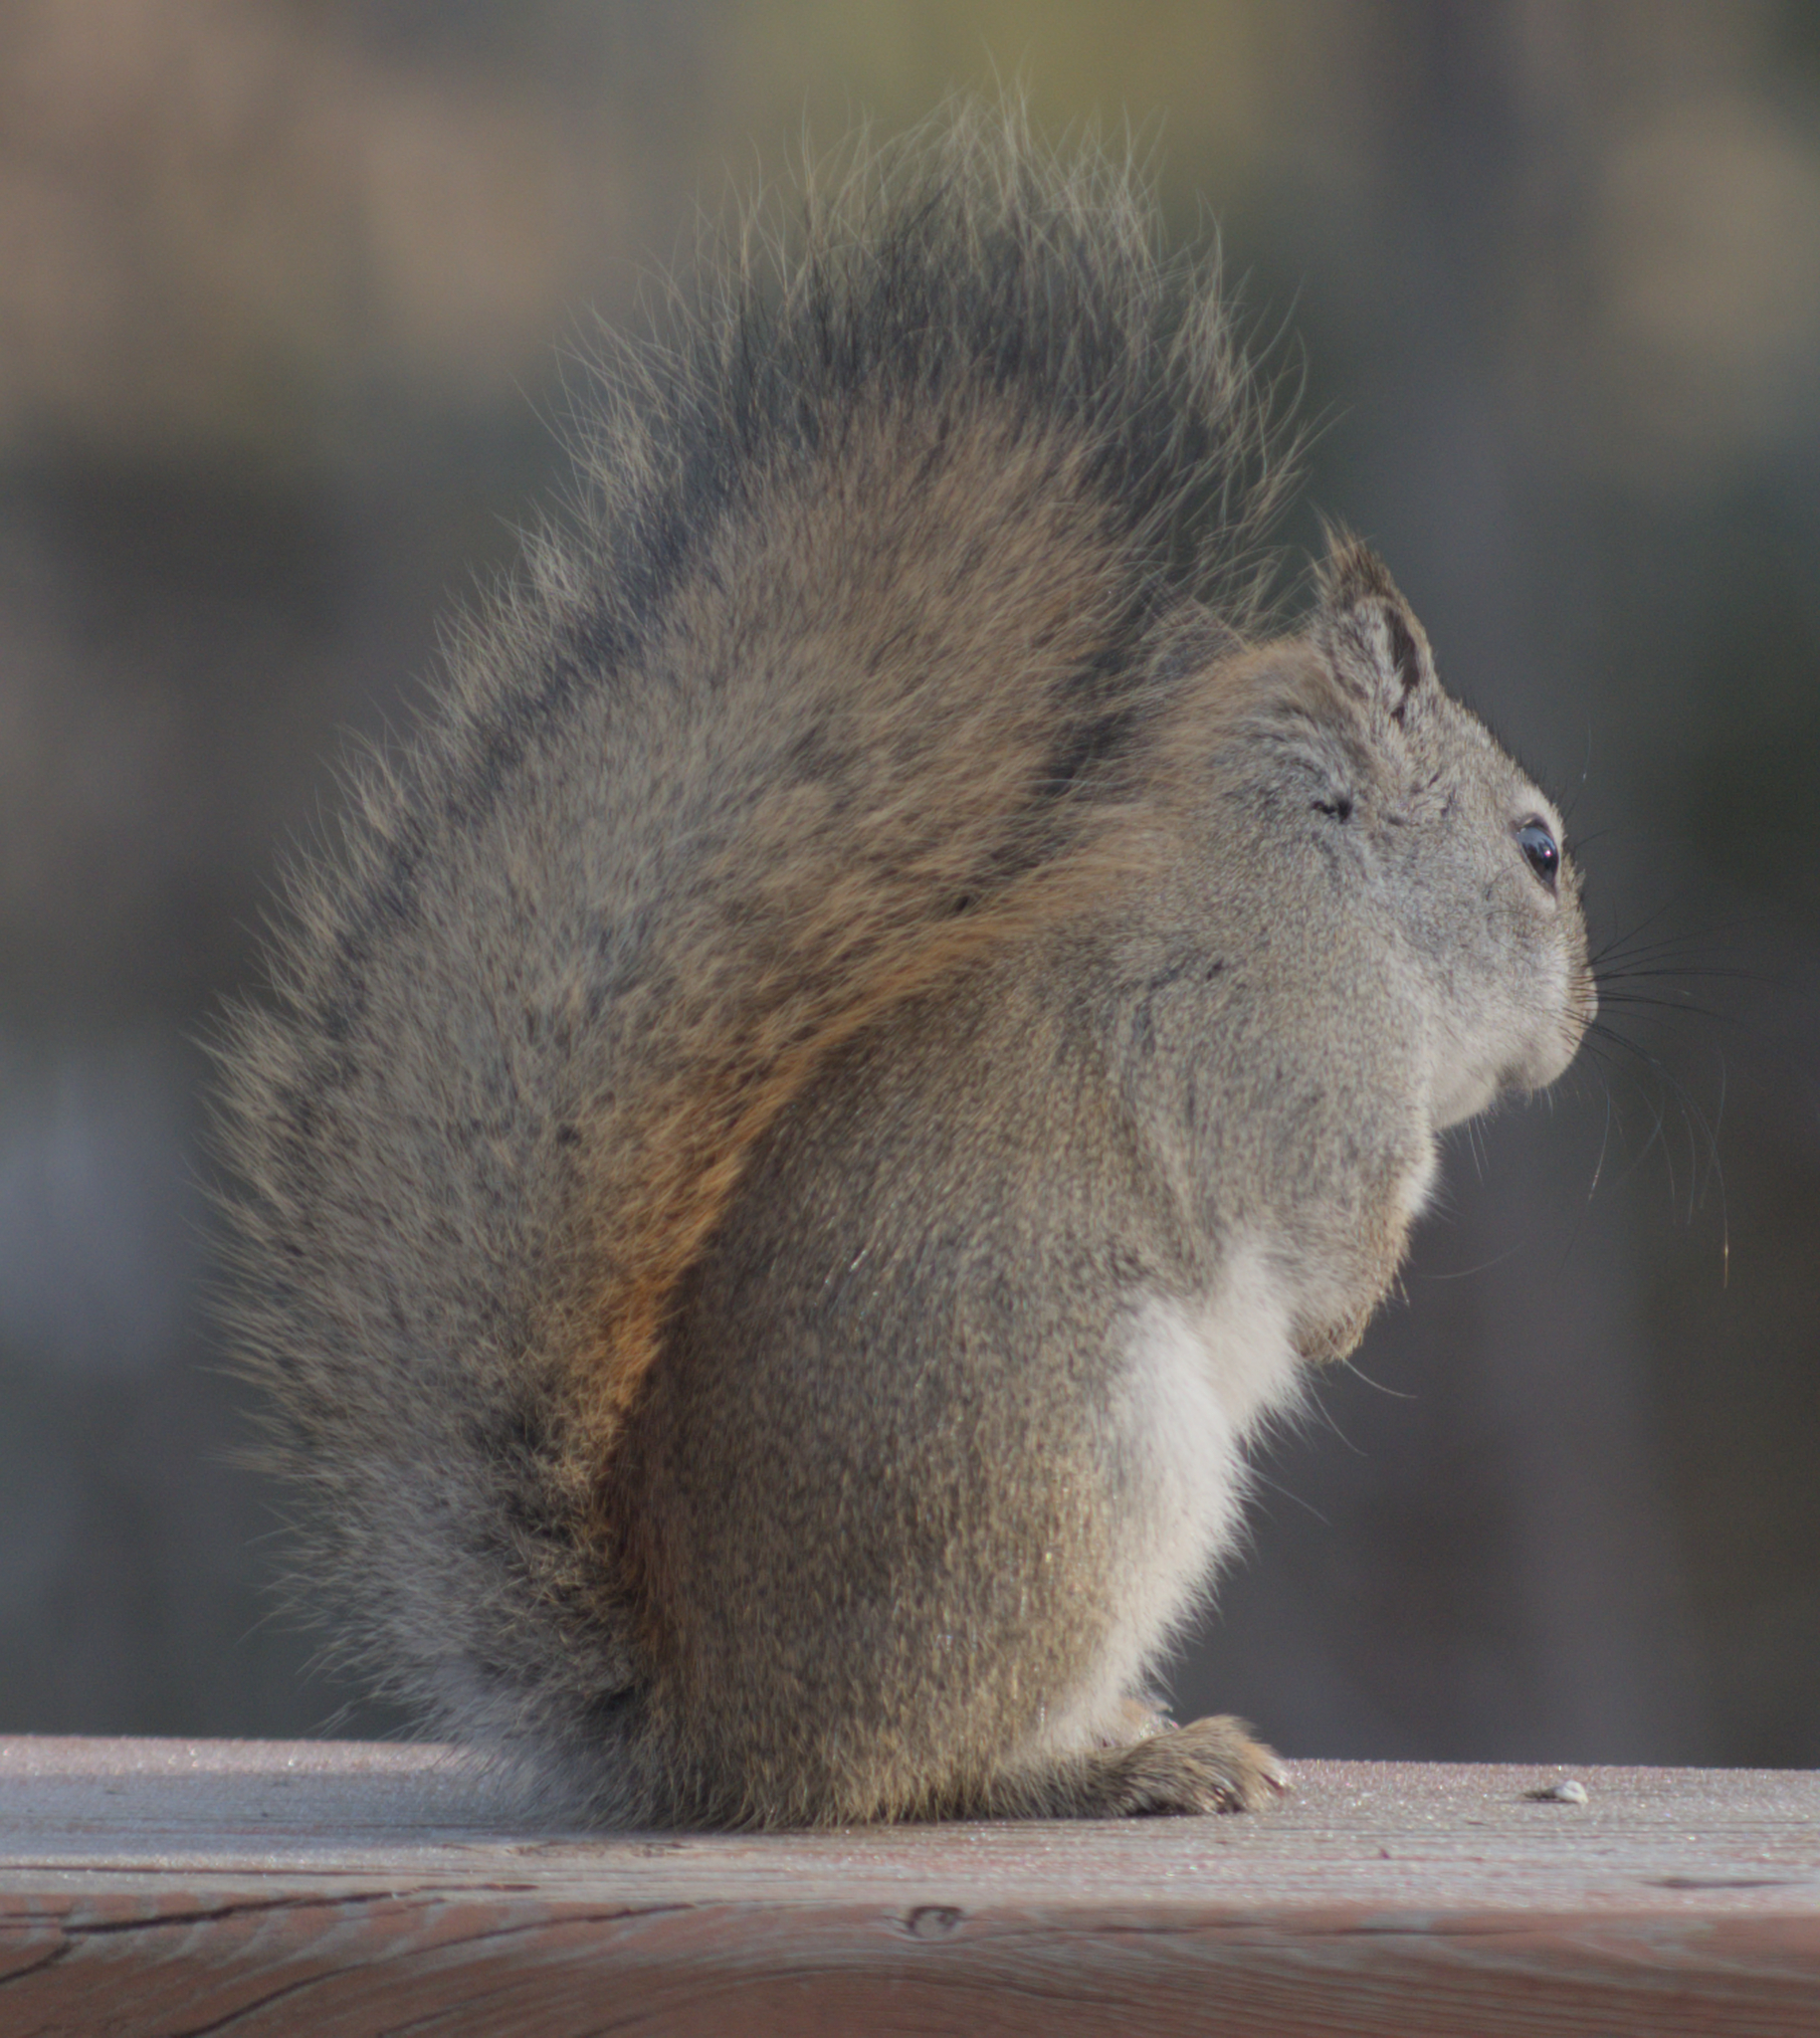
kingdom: Animalia
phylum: Chordata
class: Mammalia
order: Rodentia
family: Sciuridae
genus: Tamiasciurus
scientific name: Tamiasciurus hudsonicus
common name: Red squirrel
